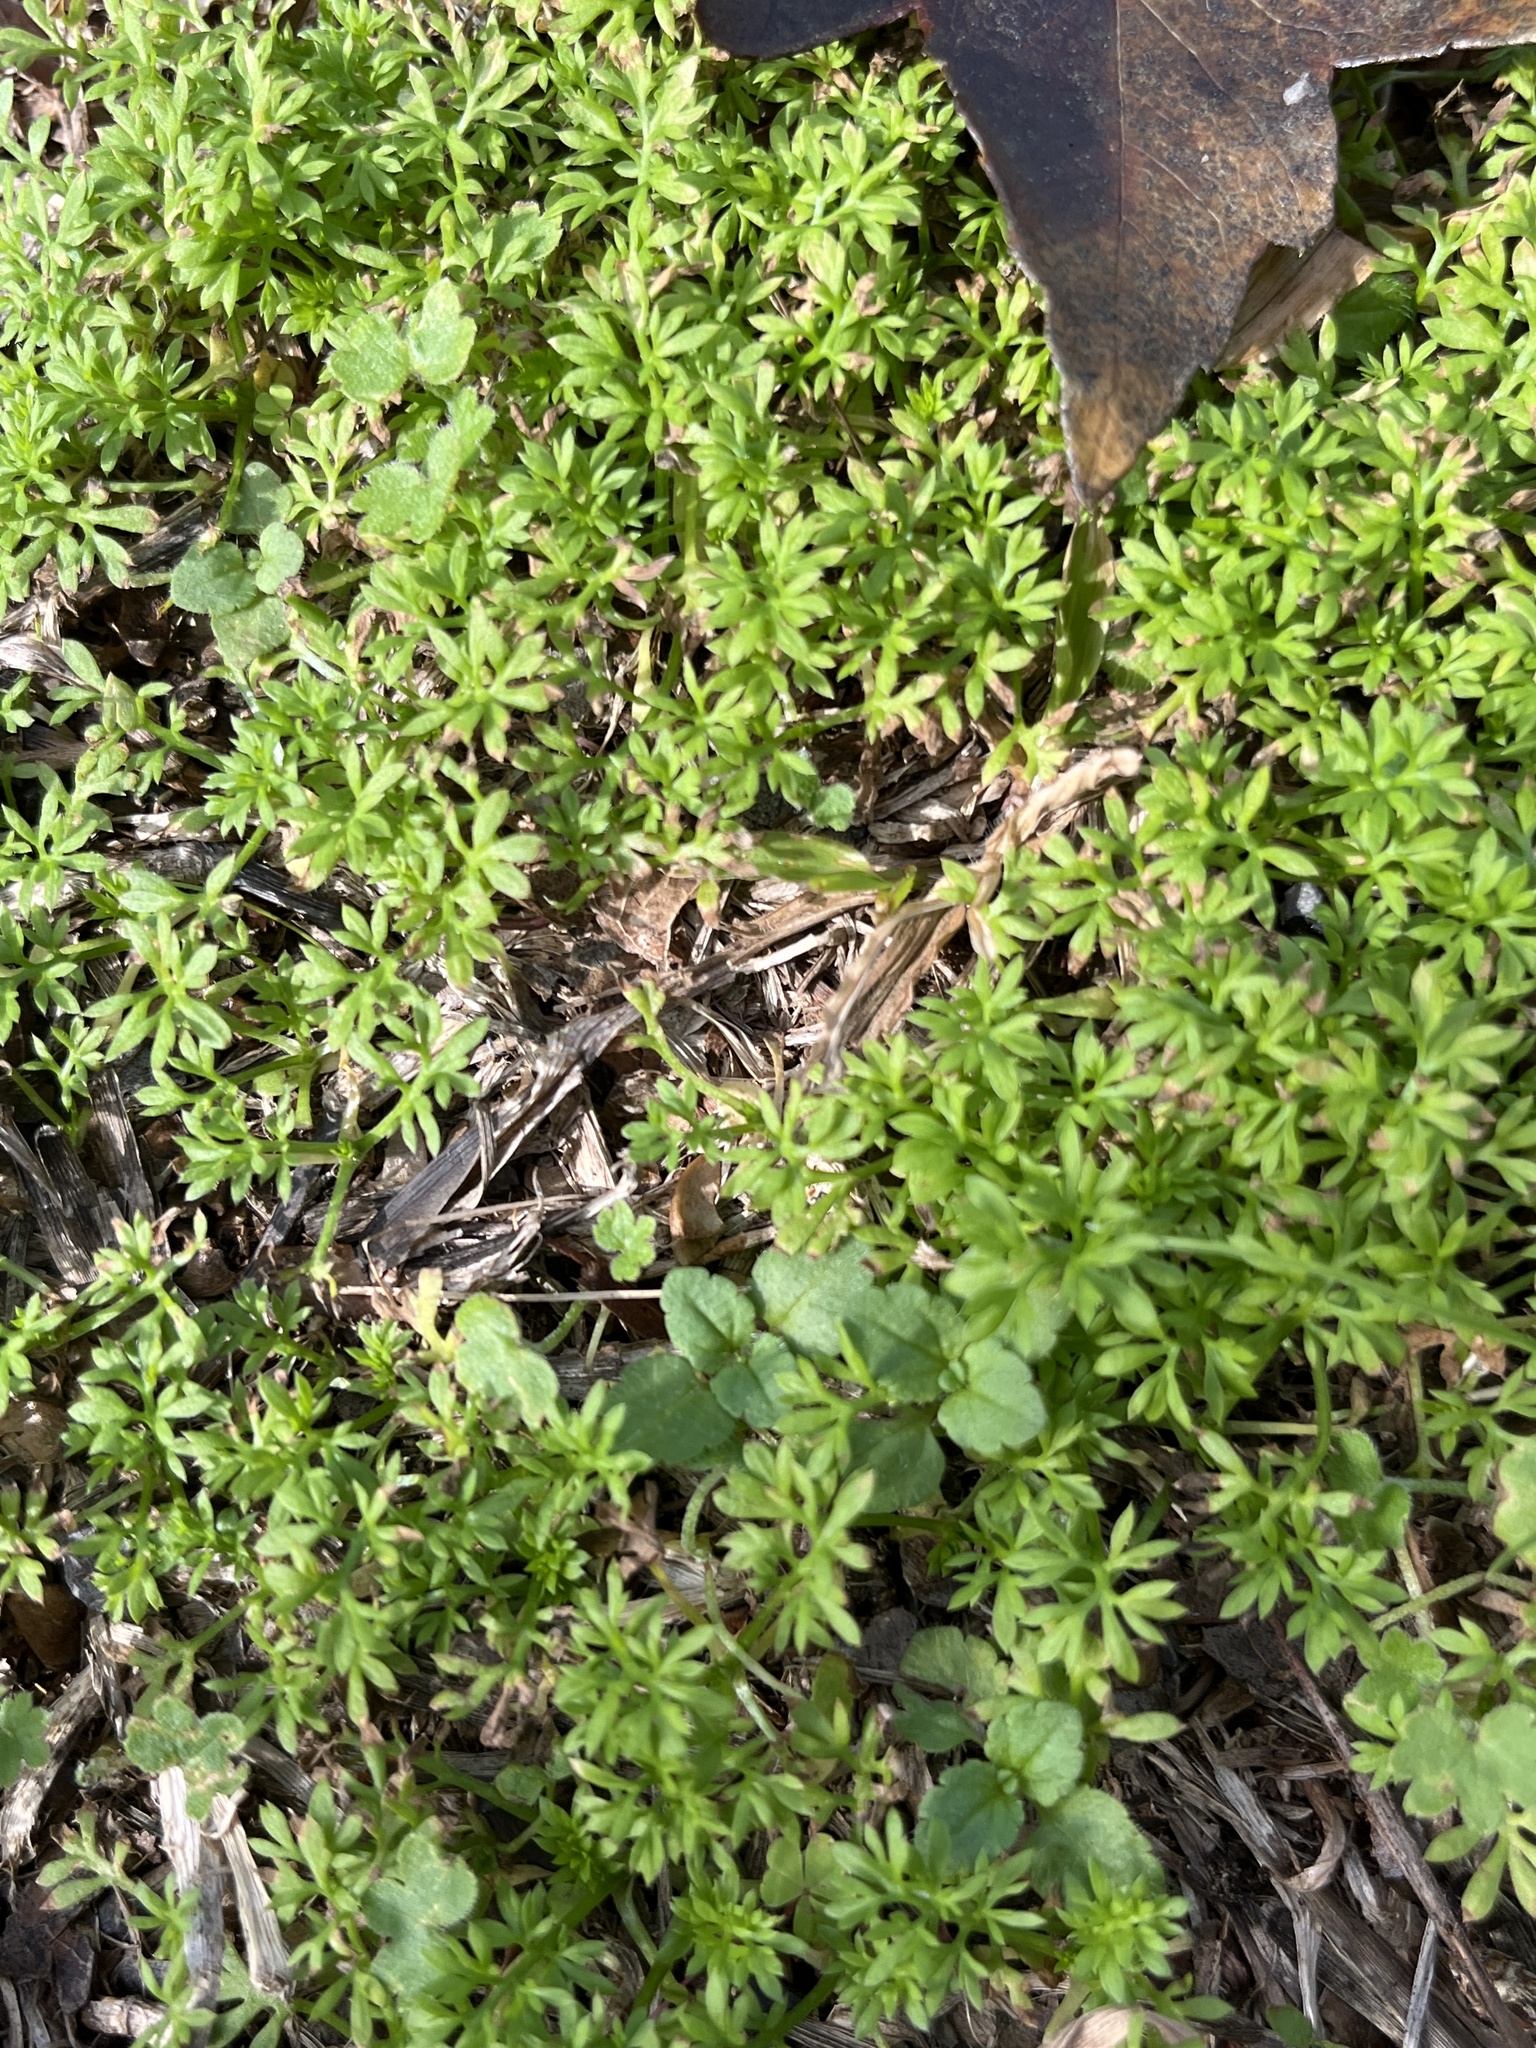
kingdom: Plantae
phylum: Tracheophyta
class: Magnoliopsida
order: Asterales
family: Asteraceae
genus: Soliva
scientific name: Soliva sessilis
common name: Field burrweed
